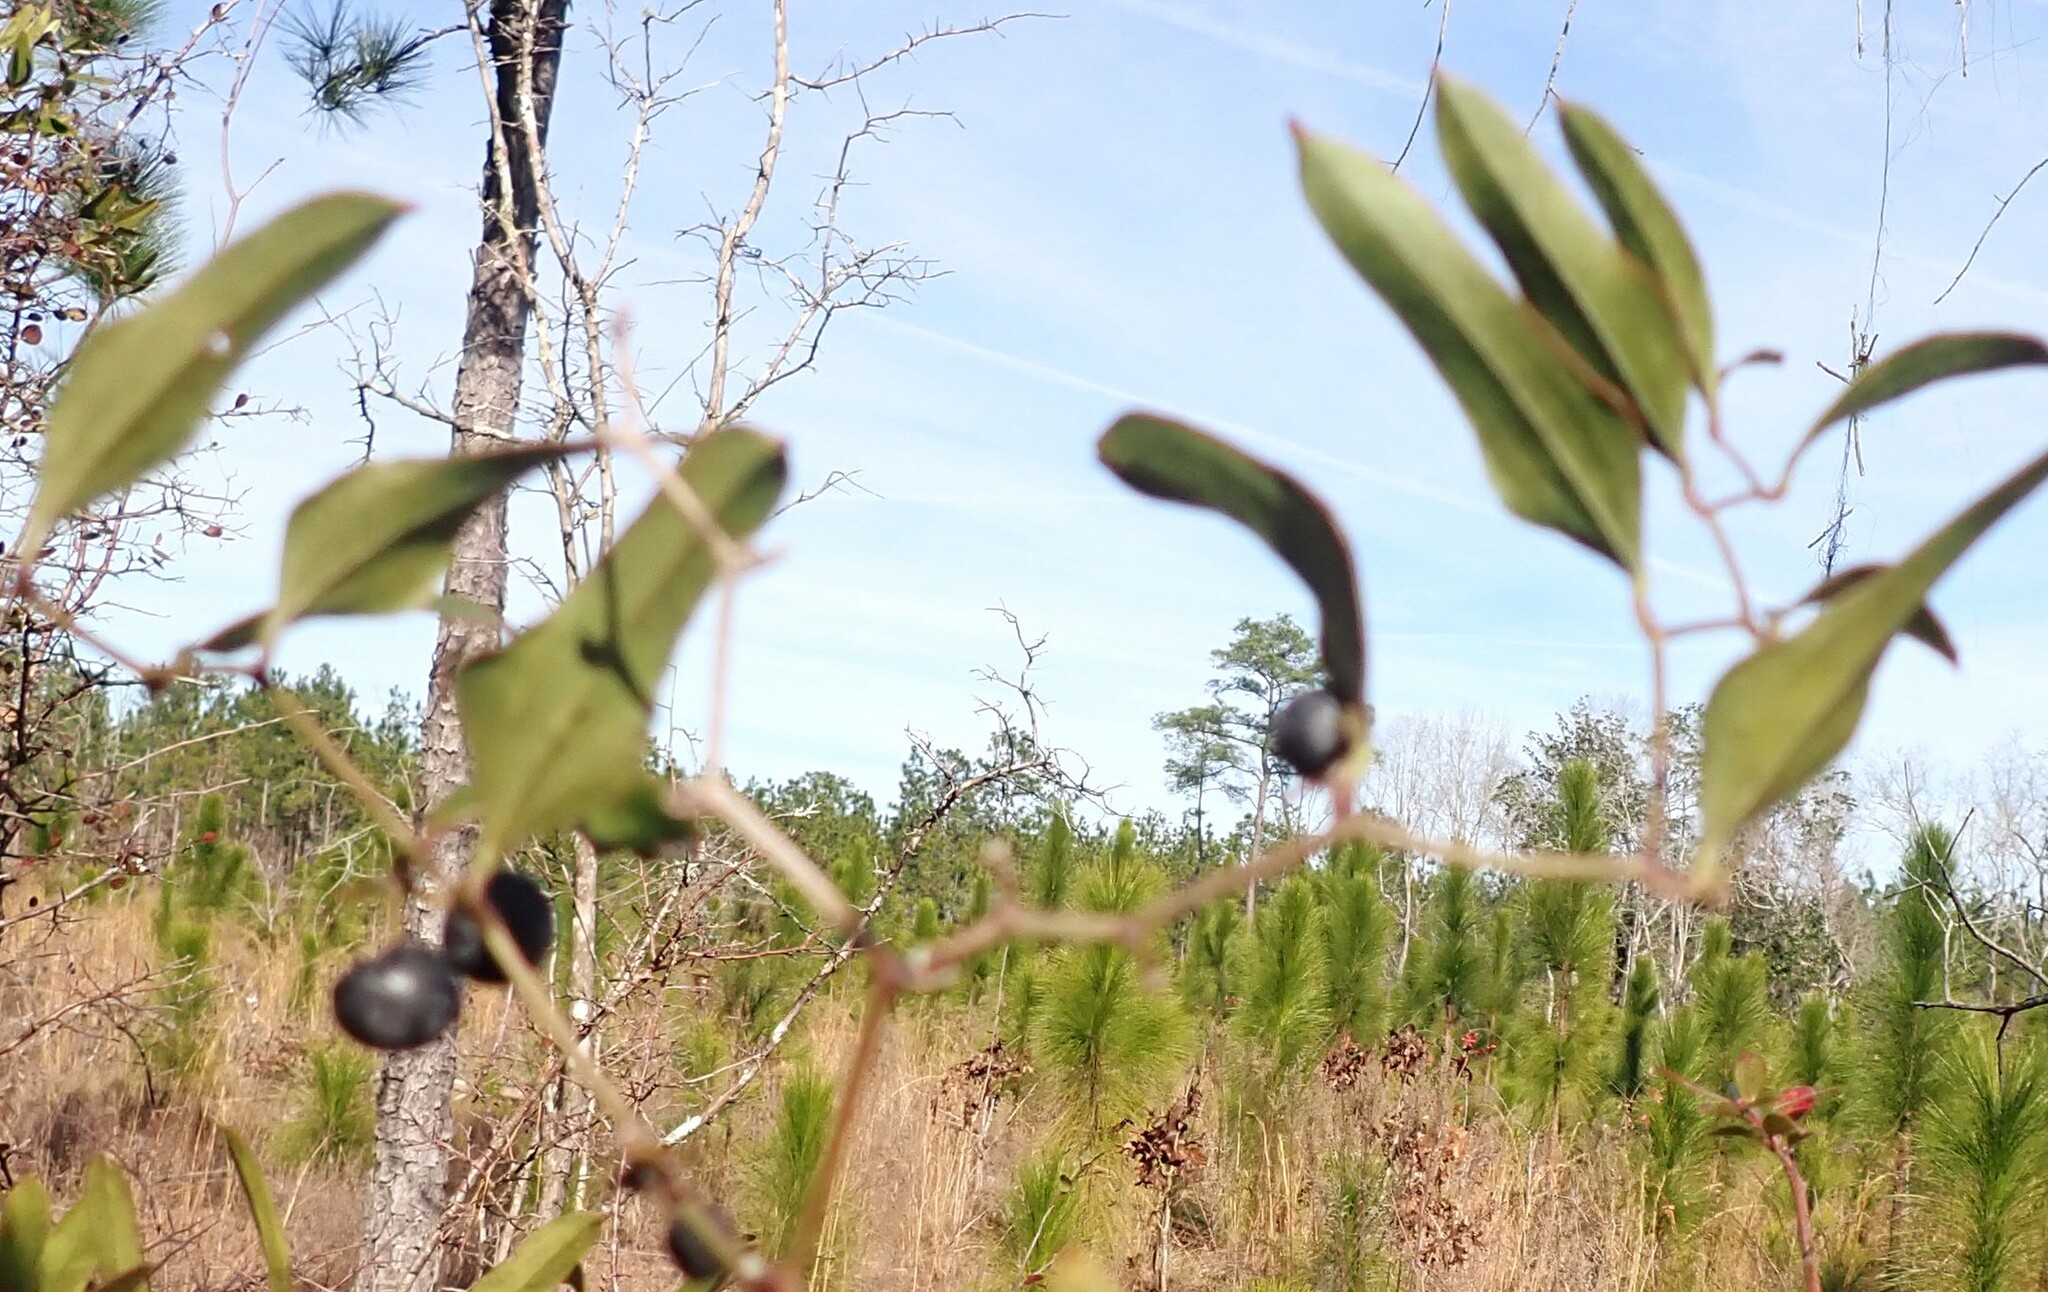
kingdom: Plantae
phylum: Tracheophyta
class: Liliopsida
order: Liliales
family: Smilacaceae
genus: Smilax
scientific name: Smilax auriculata
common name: Wild bamboo
